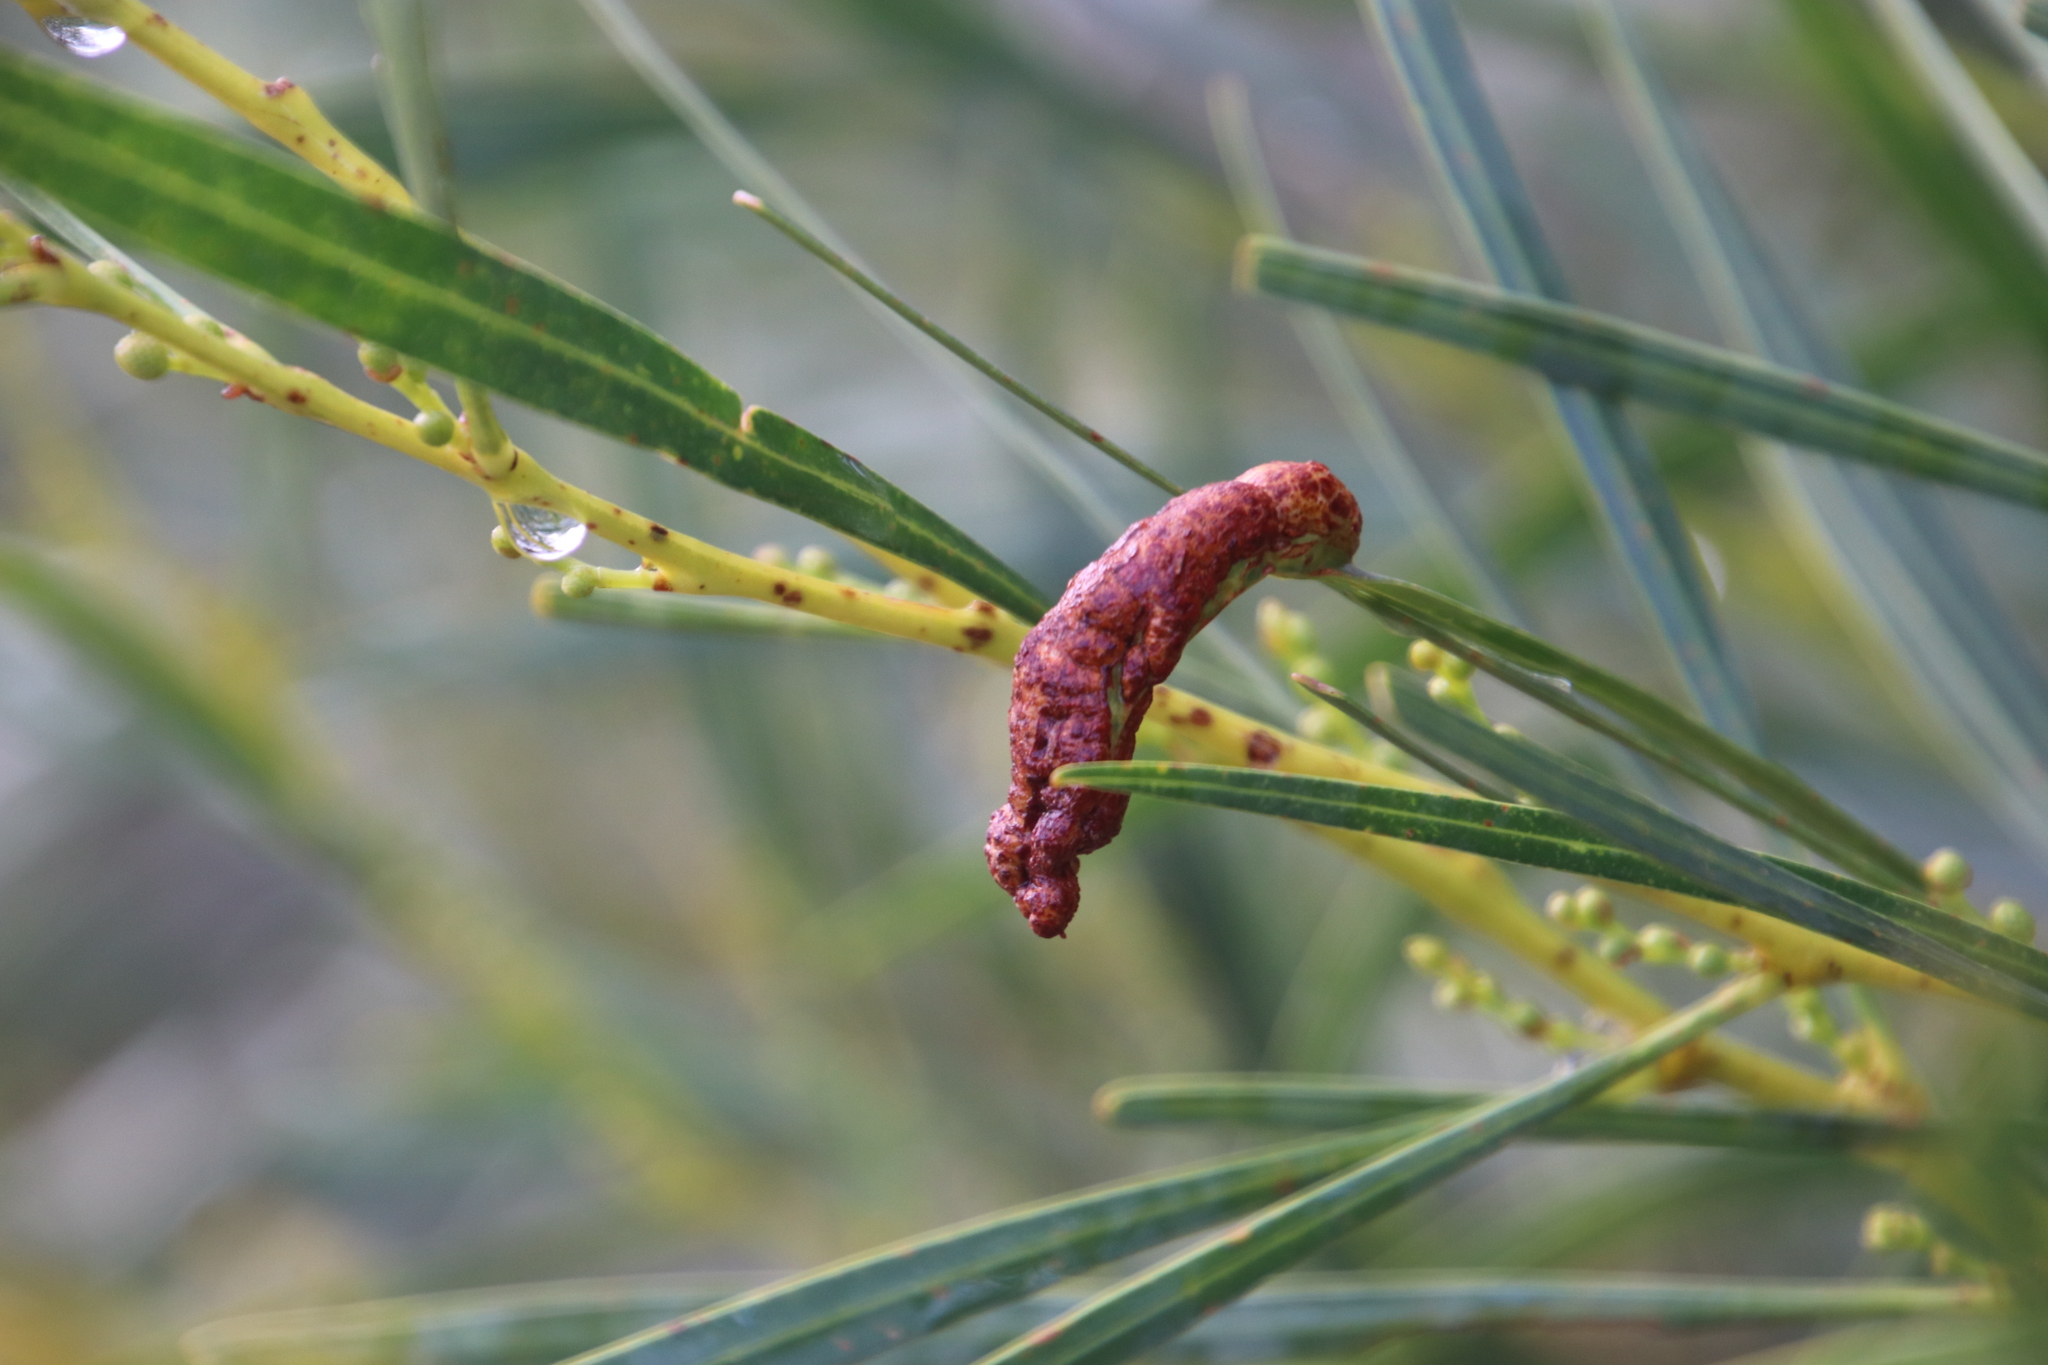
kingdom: Fungi
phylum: Basidiomycota
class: Pucciniomycetes
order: Pucciniales
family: Uromycladiaceae
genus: Uromycladium
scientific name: Uromycladium morrisii
